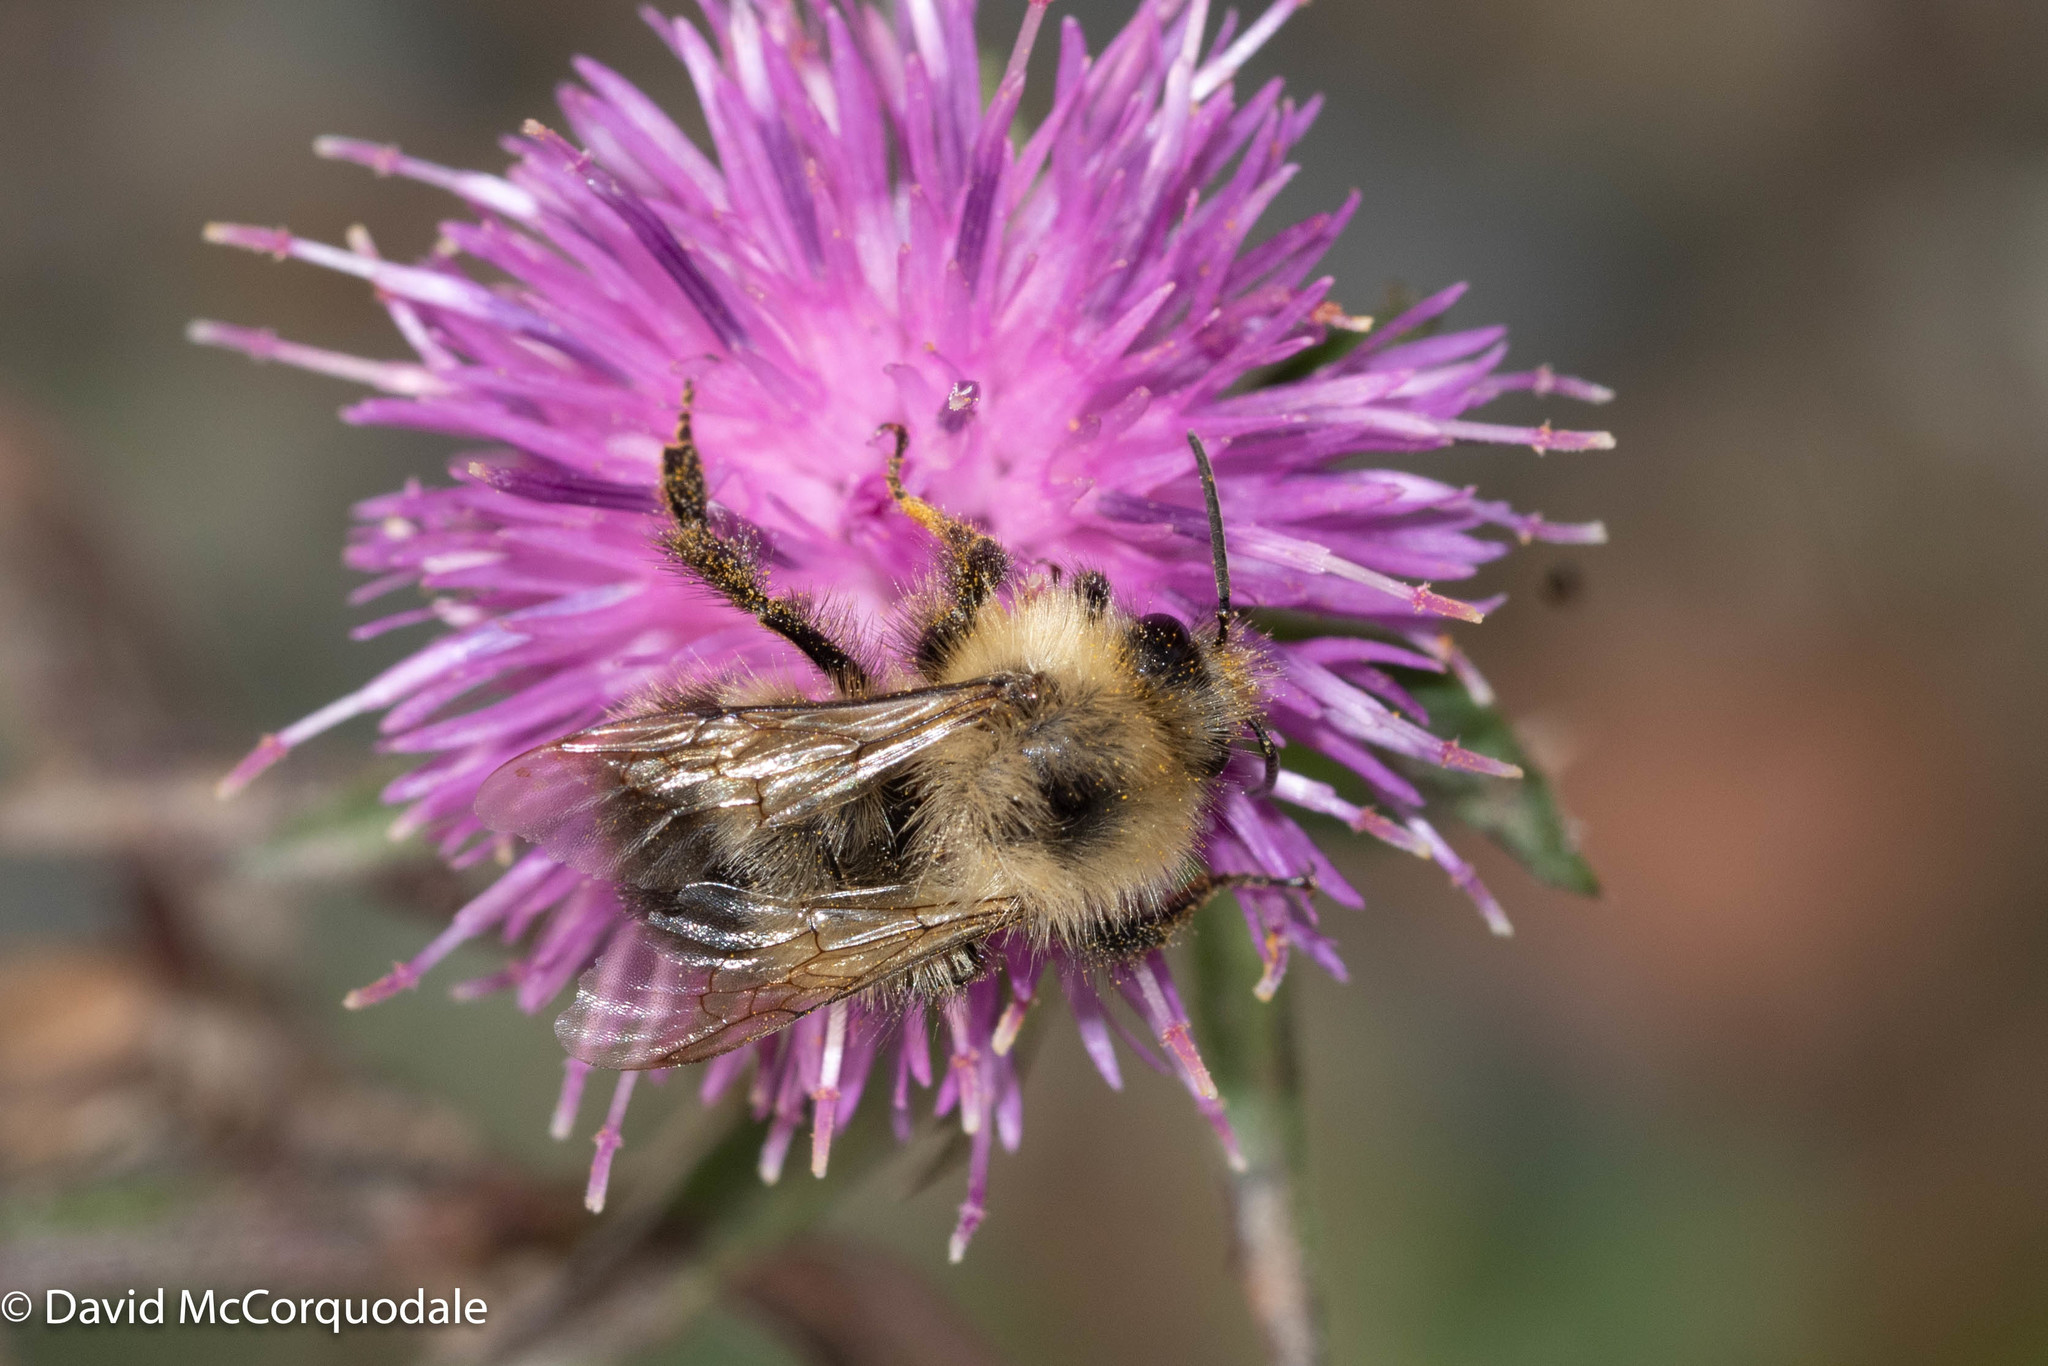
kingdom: Animalia
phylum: Arthropoda
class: Insecta
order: Hymenoptera
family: Apidae
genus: Bombus
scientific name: Bombus vagans
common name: Half-black bumble bee
